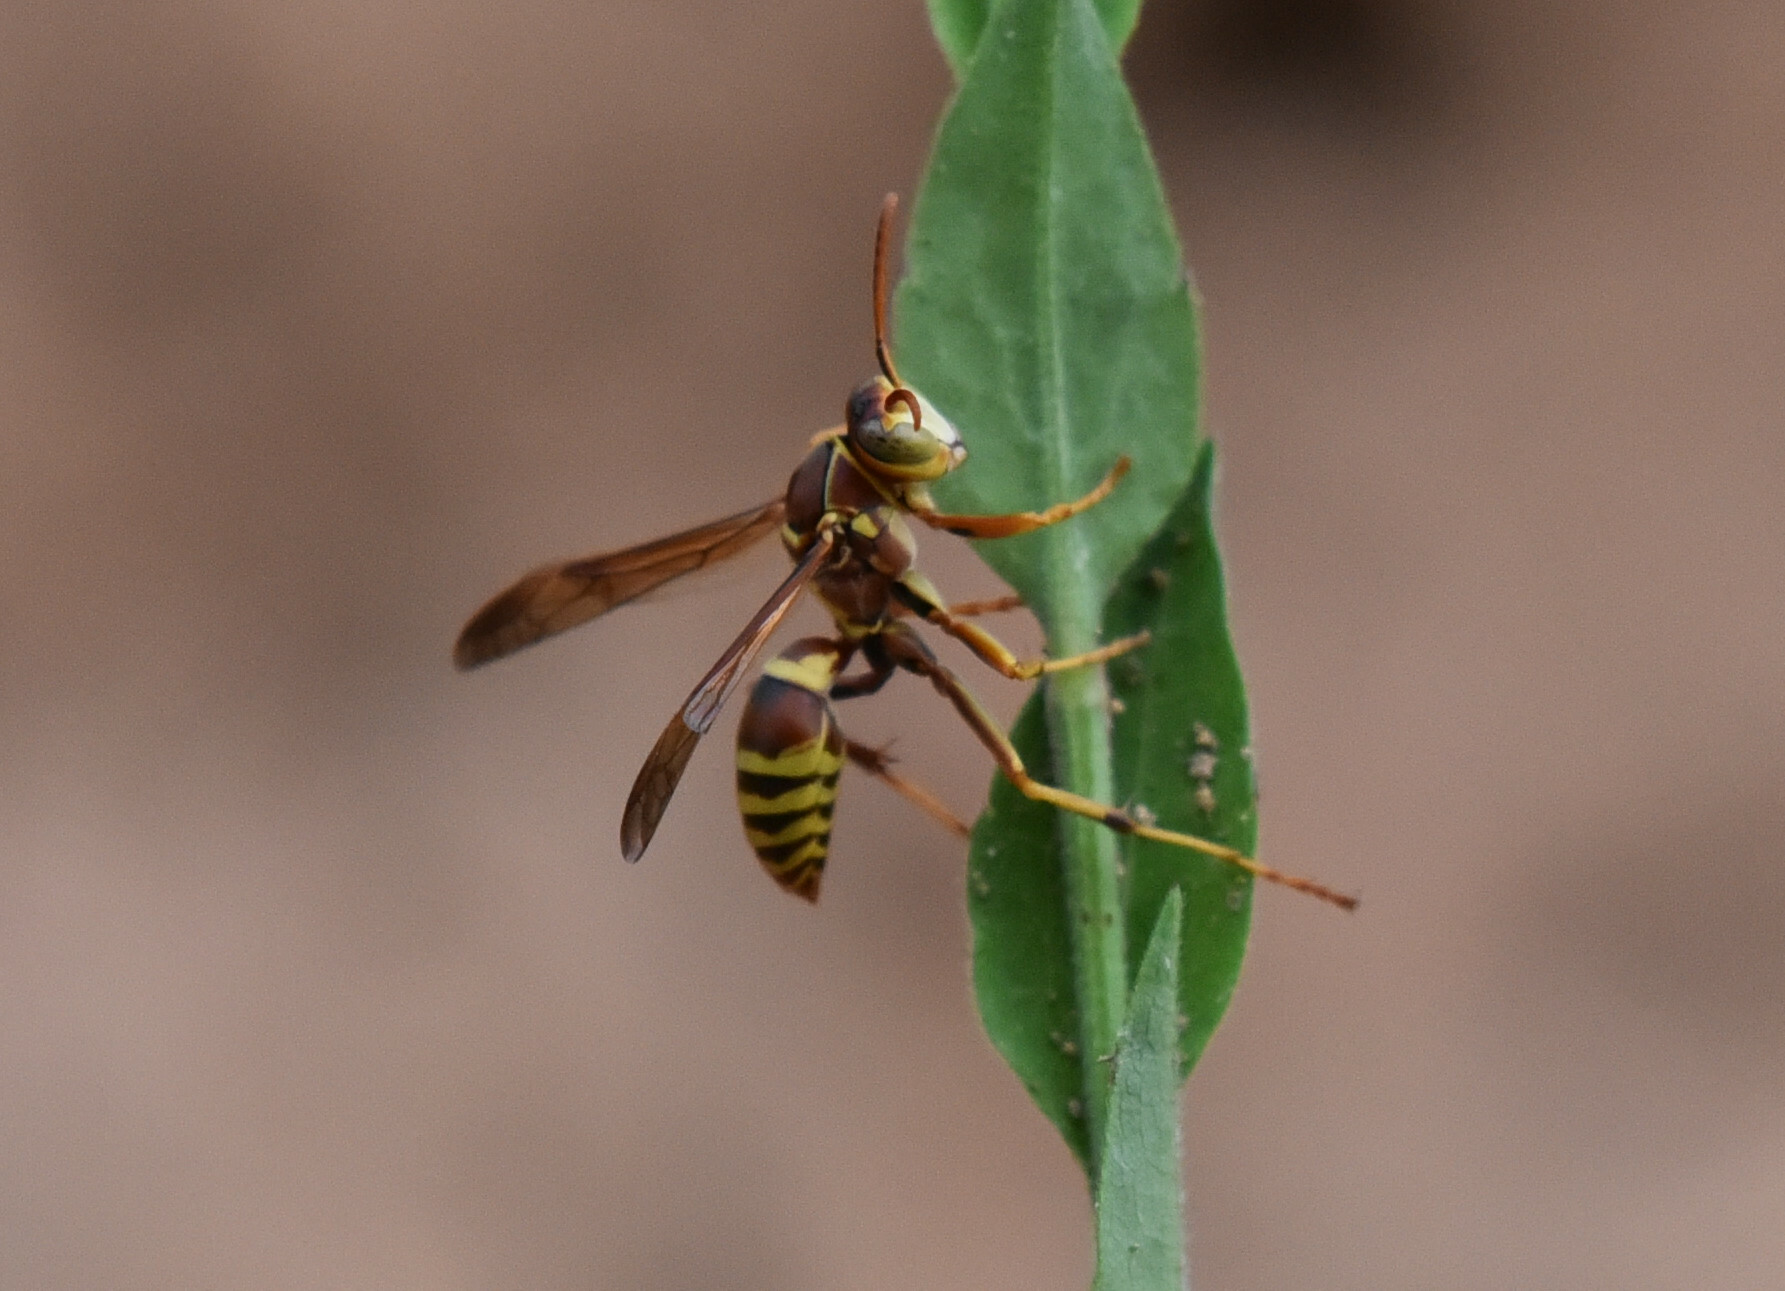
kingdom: Animalia
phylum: Arthropoda
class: Insecta
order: Hymenoptera
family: Eumenidae
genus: Polistes
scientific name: Polistes dorsalis
